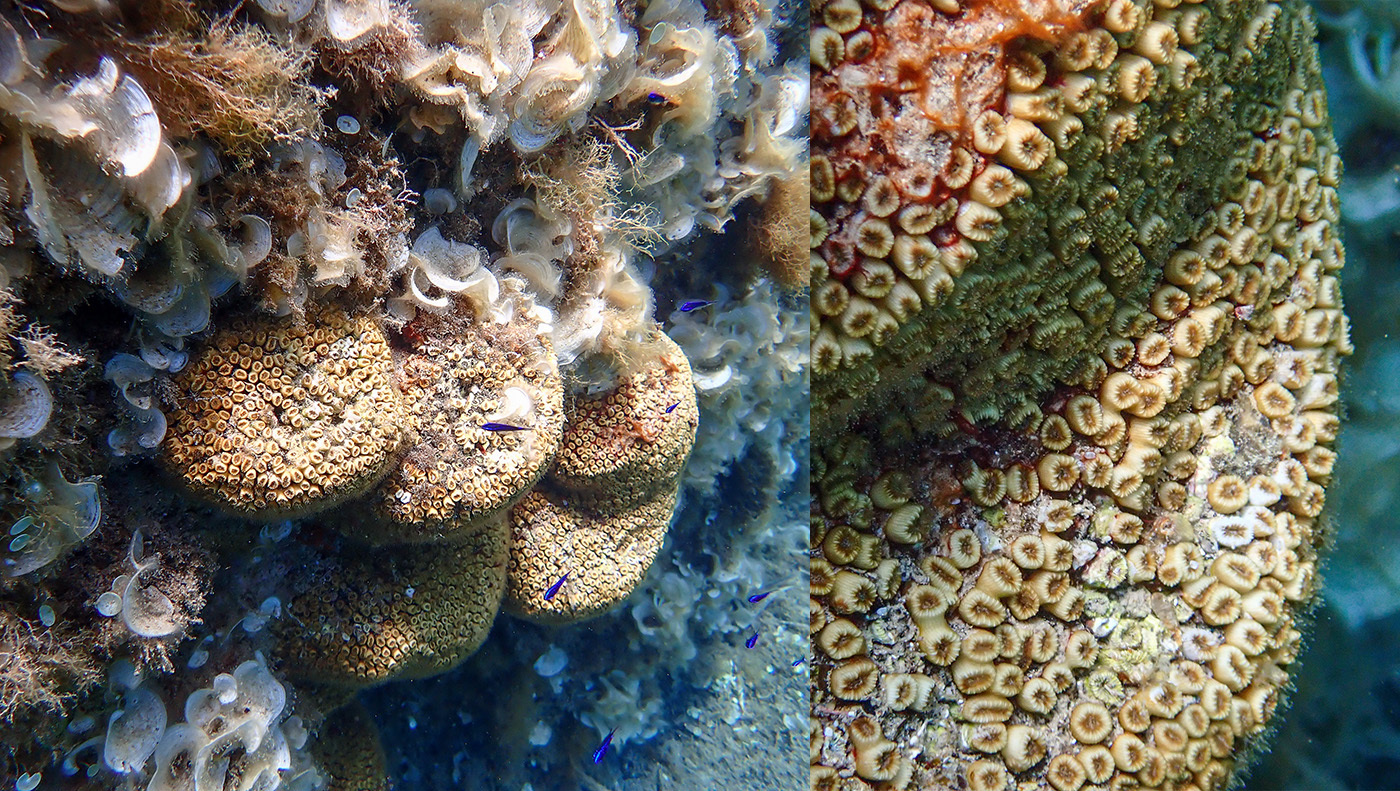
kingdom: Animalia
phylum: Cnidaria
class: Anthozoa
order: Scleractinia
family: Cladocoridae
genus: Cladocora
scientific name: Cladocora caespitosa
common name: Cladocora
